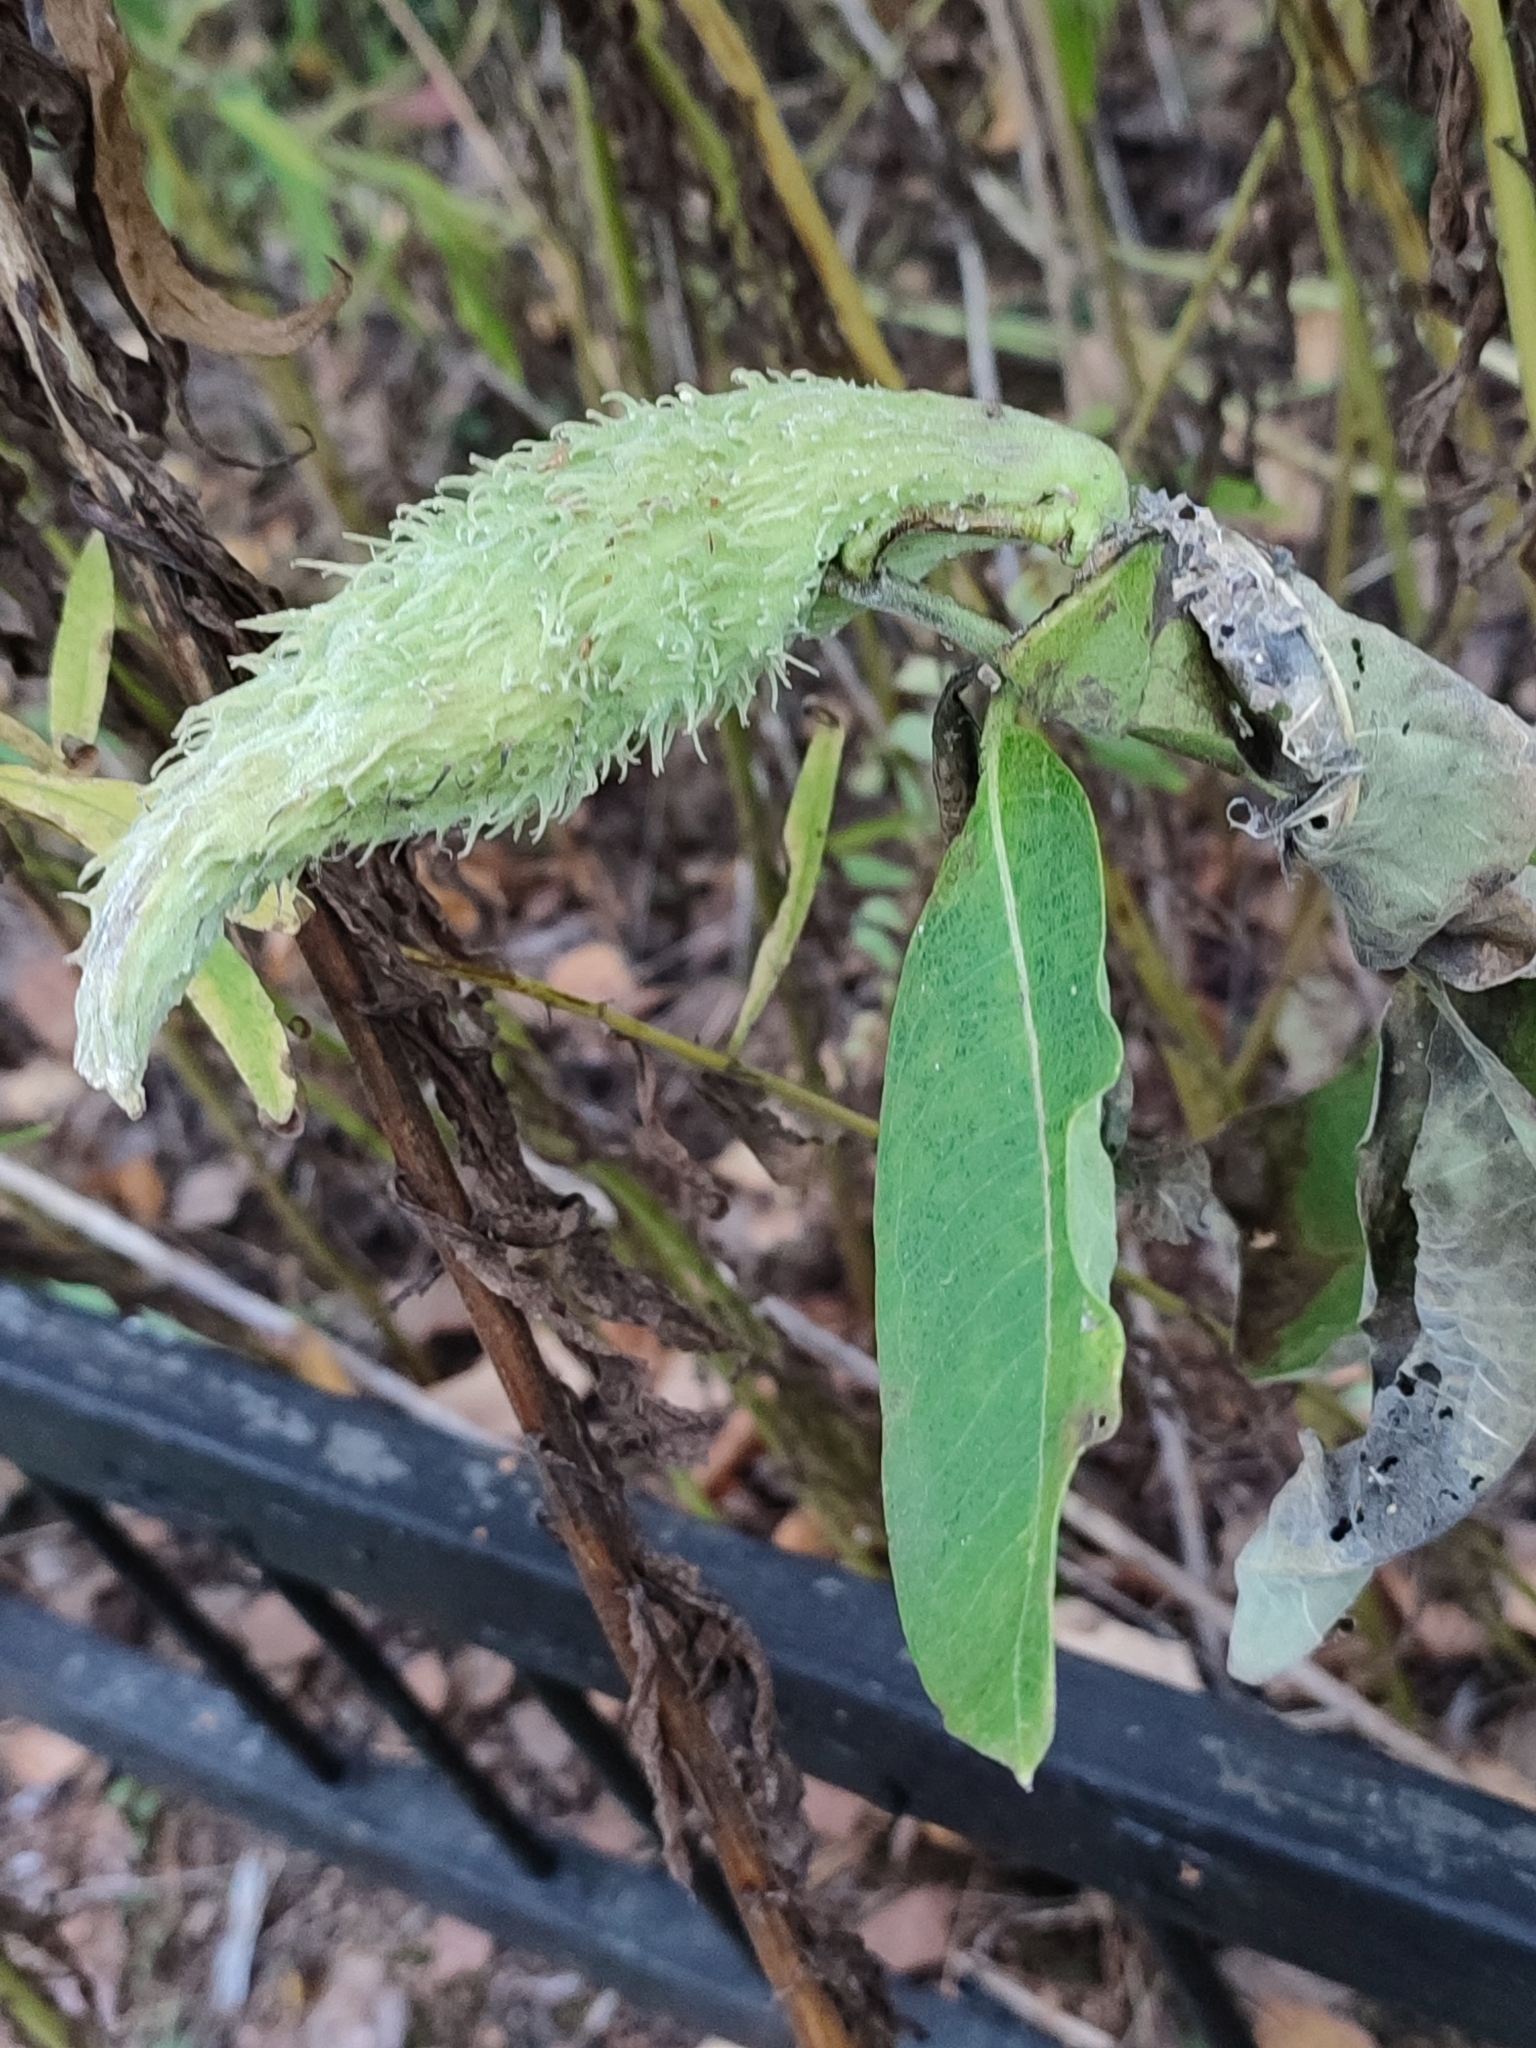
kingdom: Plantae
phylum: Tracheophyta
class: Magnoliopsida
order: Gentianales
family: Apocynaceae
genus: Asclepias
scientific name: Asclepias syriaca
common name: Common milkweed
